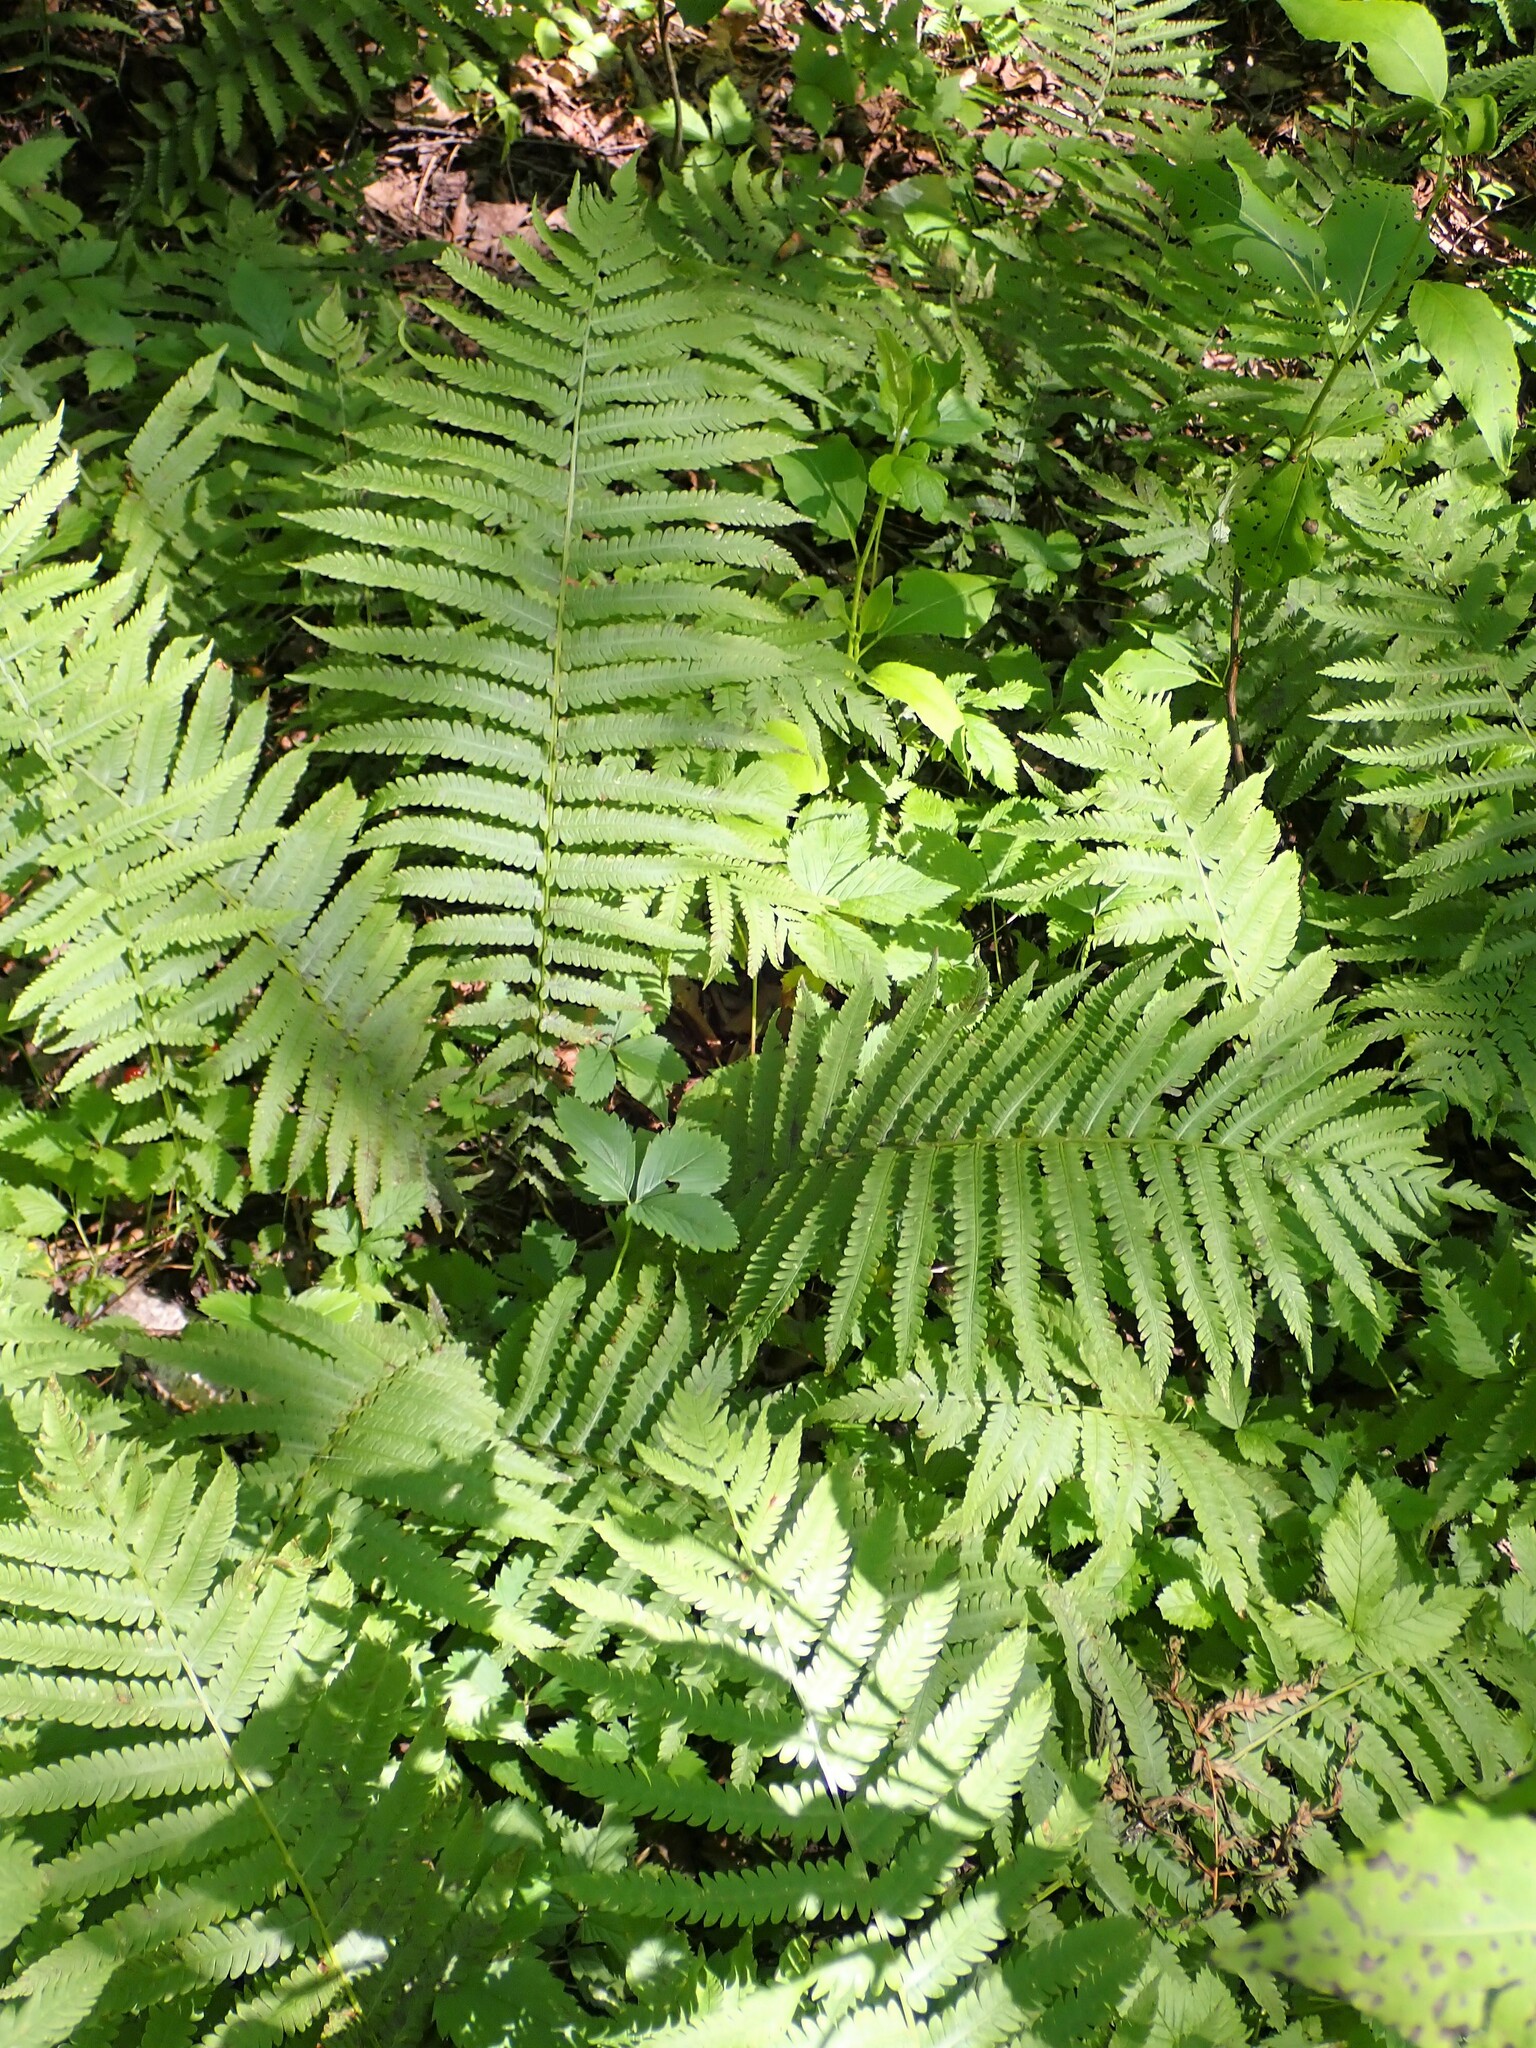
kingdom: Plantae
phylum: Tracheophyta
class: Polypodiopsida
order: Polypodiales
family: Onocleaceae
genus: Matteuccia
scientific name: Matteuccia struthiopteris
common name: Ostrich fern
